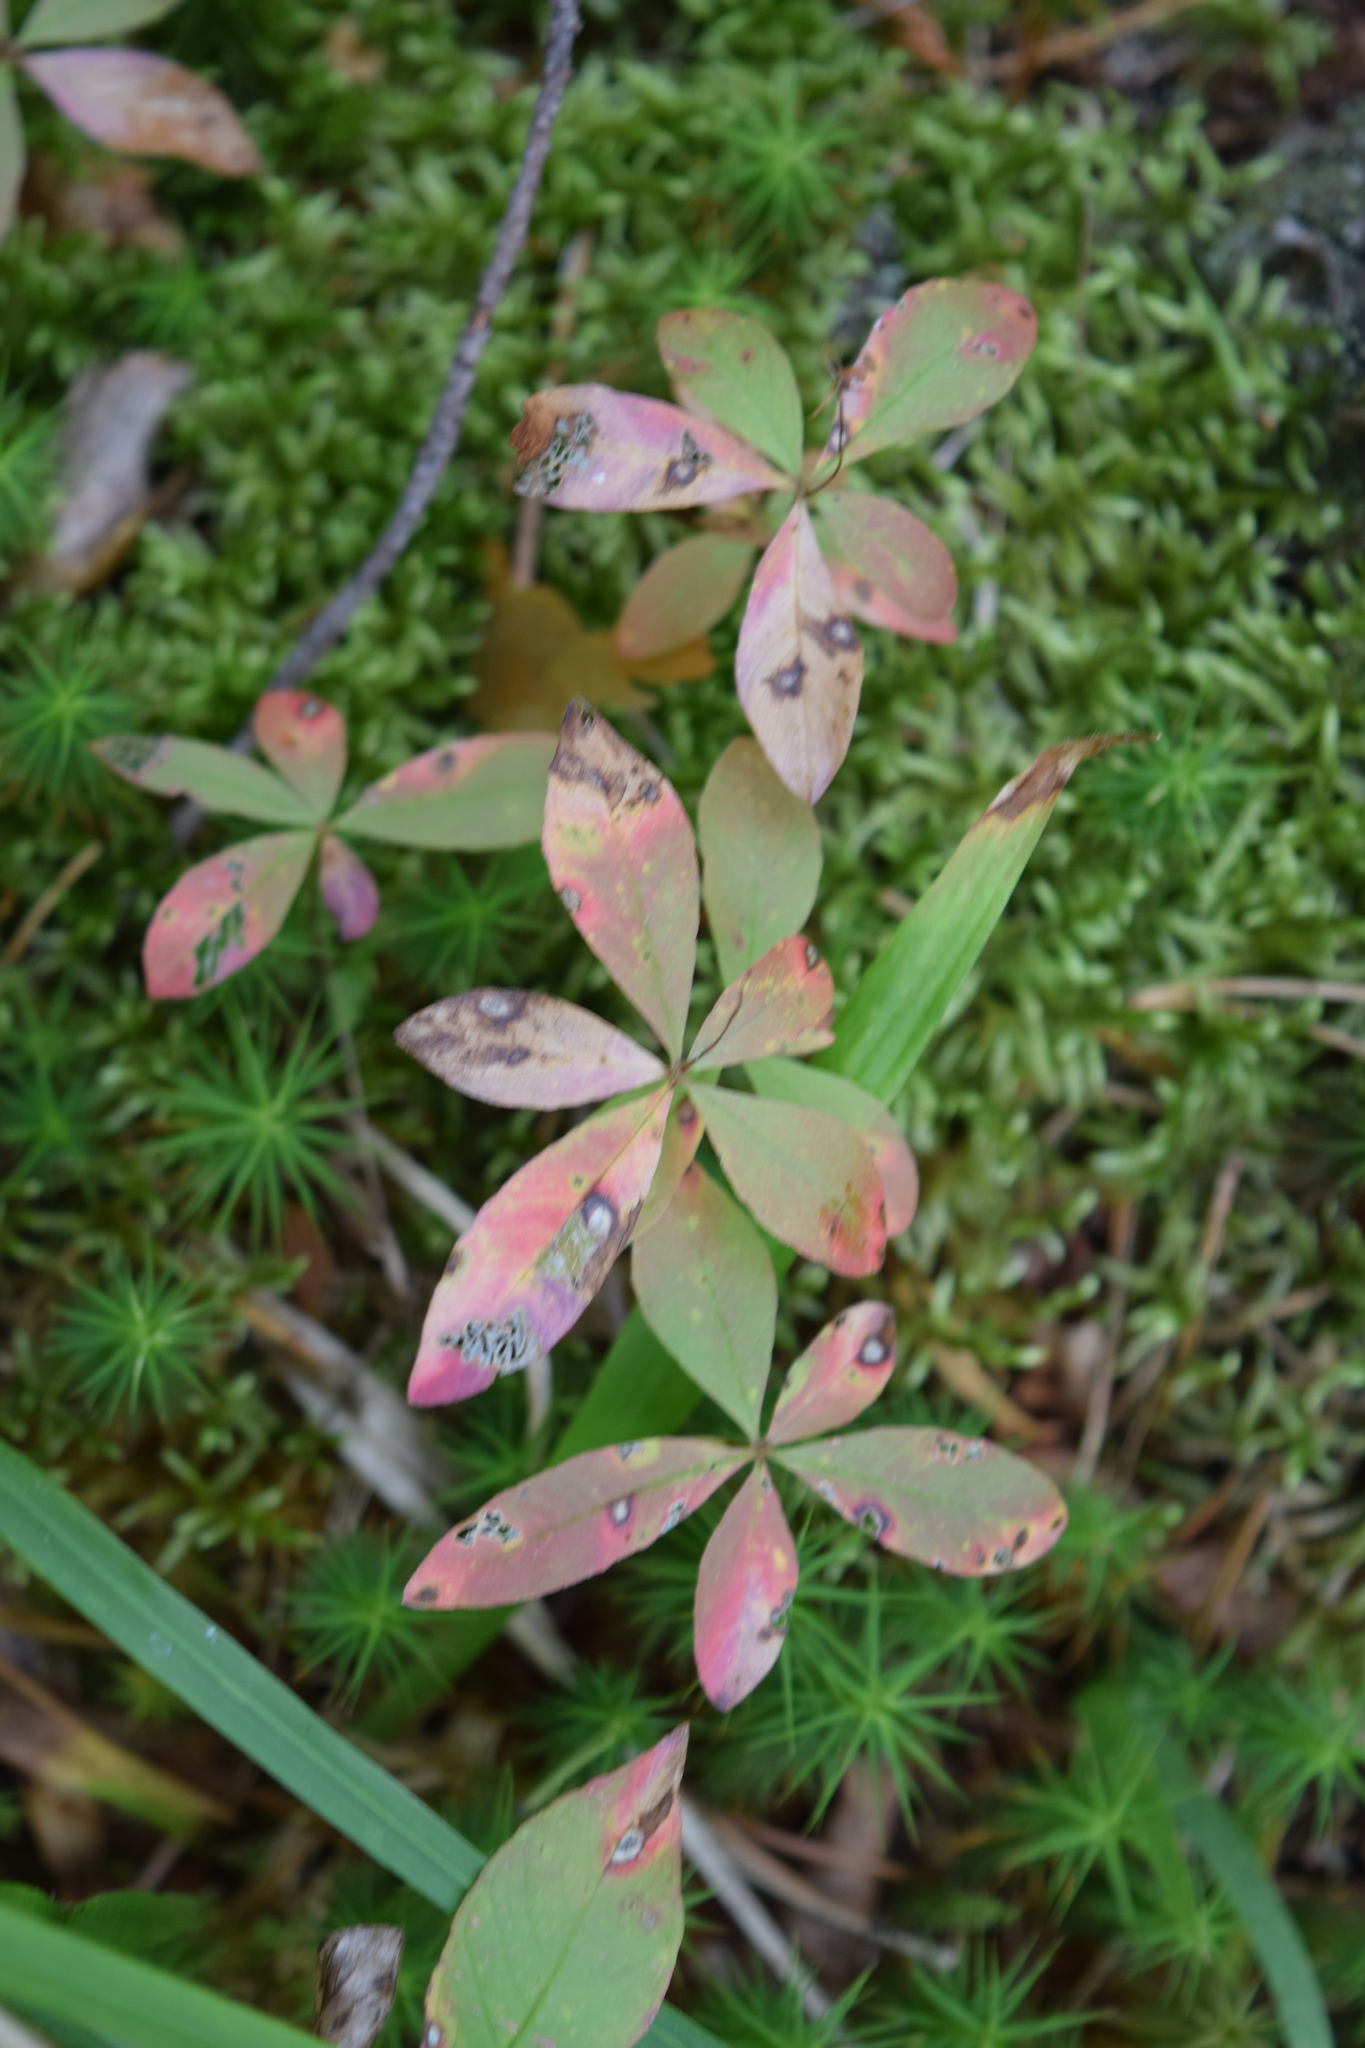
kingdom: Plantae
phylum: Tracheophyta
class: Magnoliopsida
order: Ericales
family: Primulaceae
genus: Lysimachia
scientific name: Lysimachia europaea
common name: Arctic starflower
